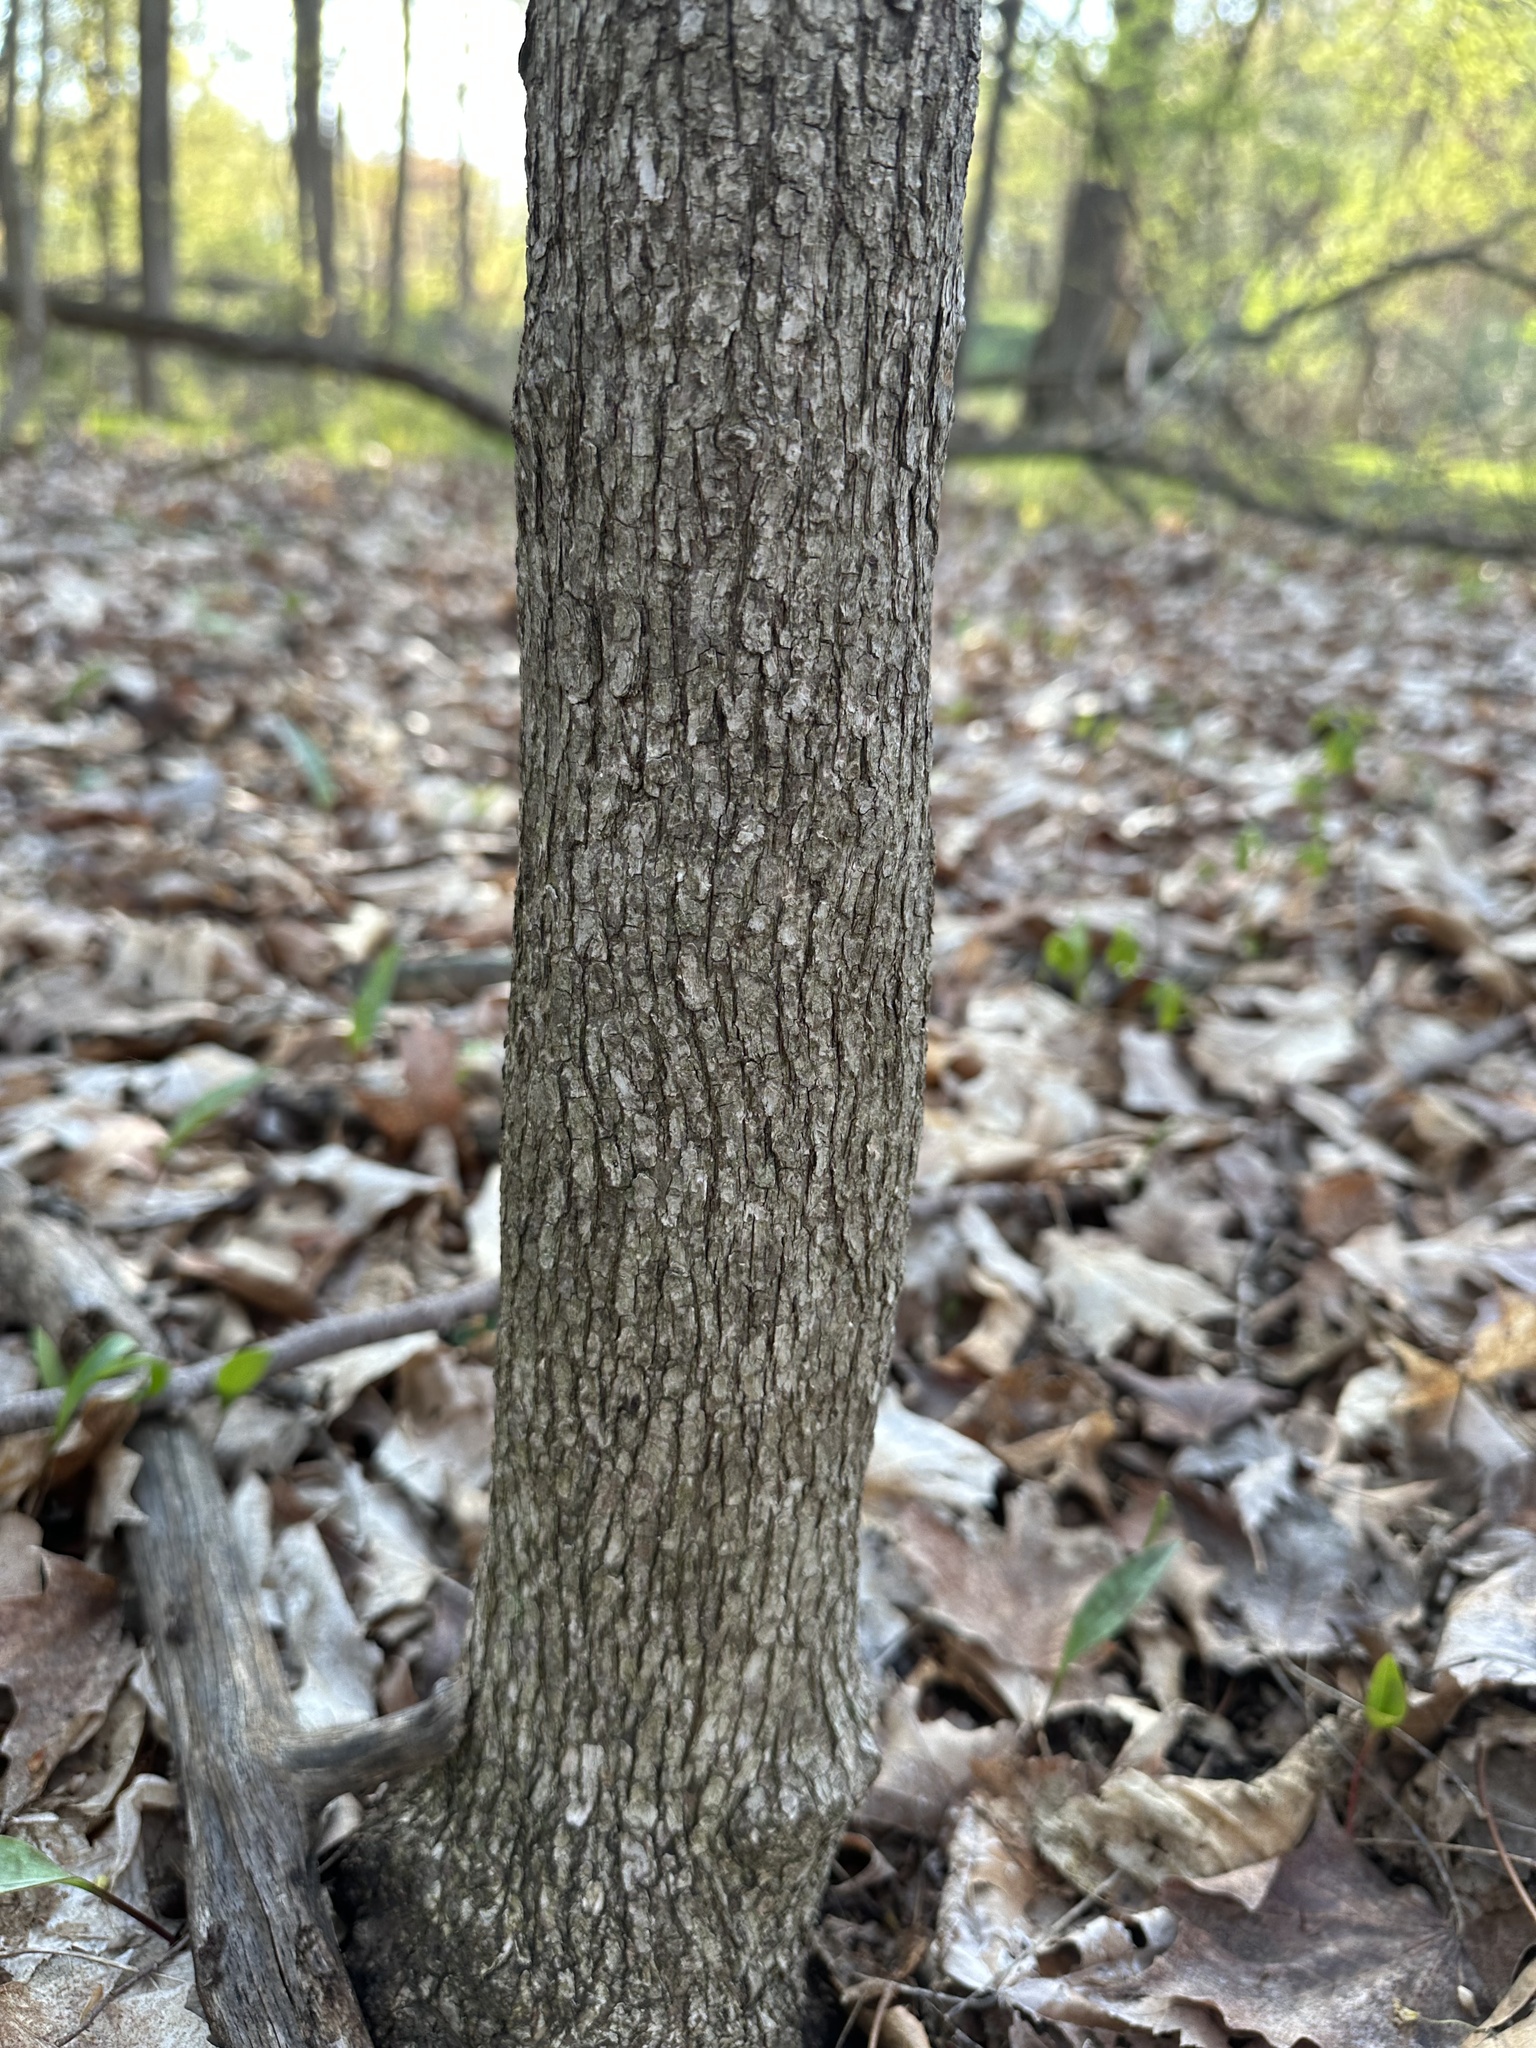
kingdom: Plantae
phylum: Tracheophyta
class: Magnoliopsida
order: Fagales
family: Betulaceae
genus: Ostrya
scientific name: Ostrya virginiana
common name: Ironwood
